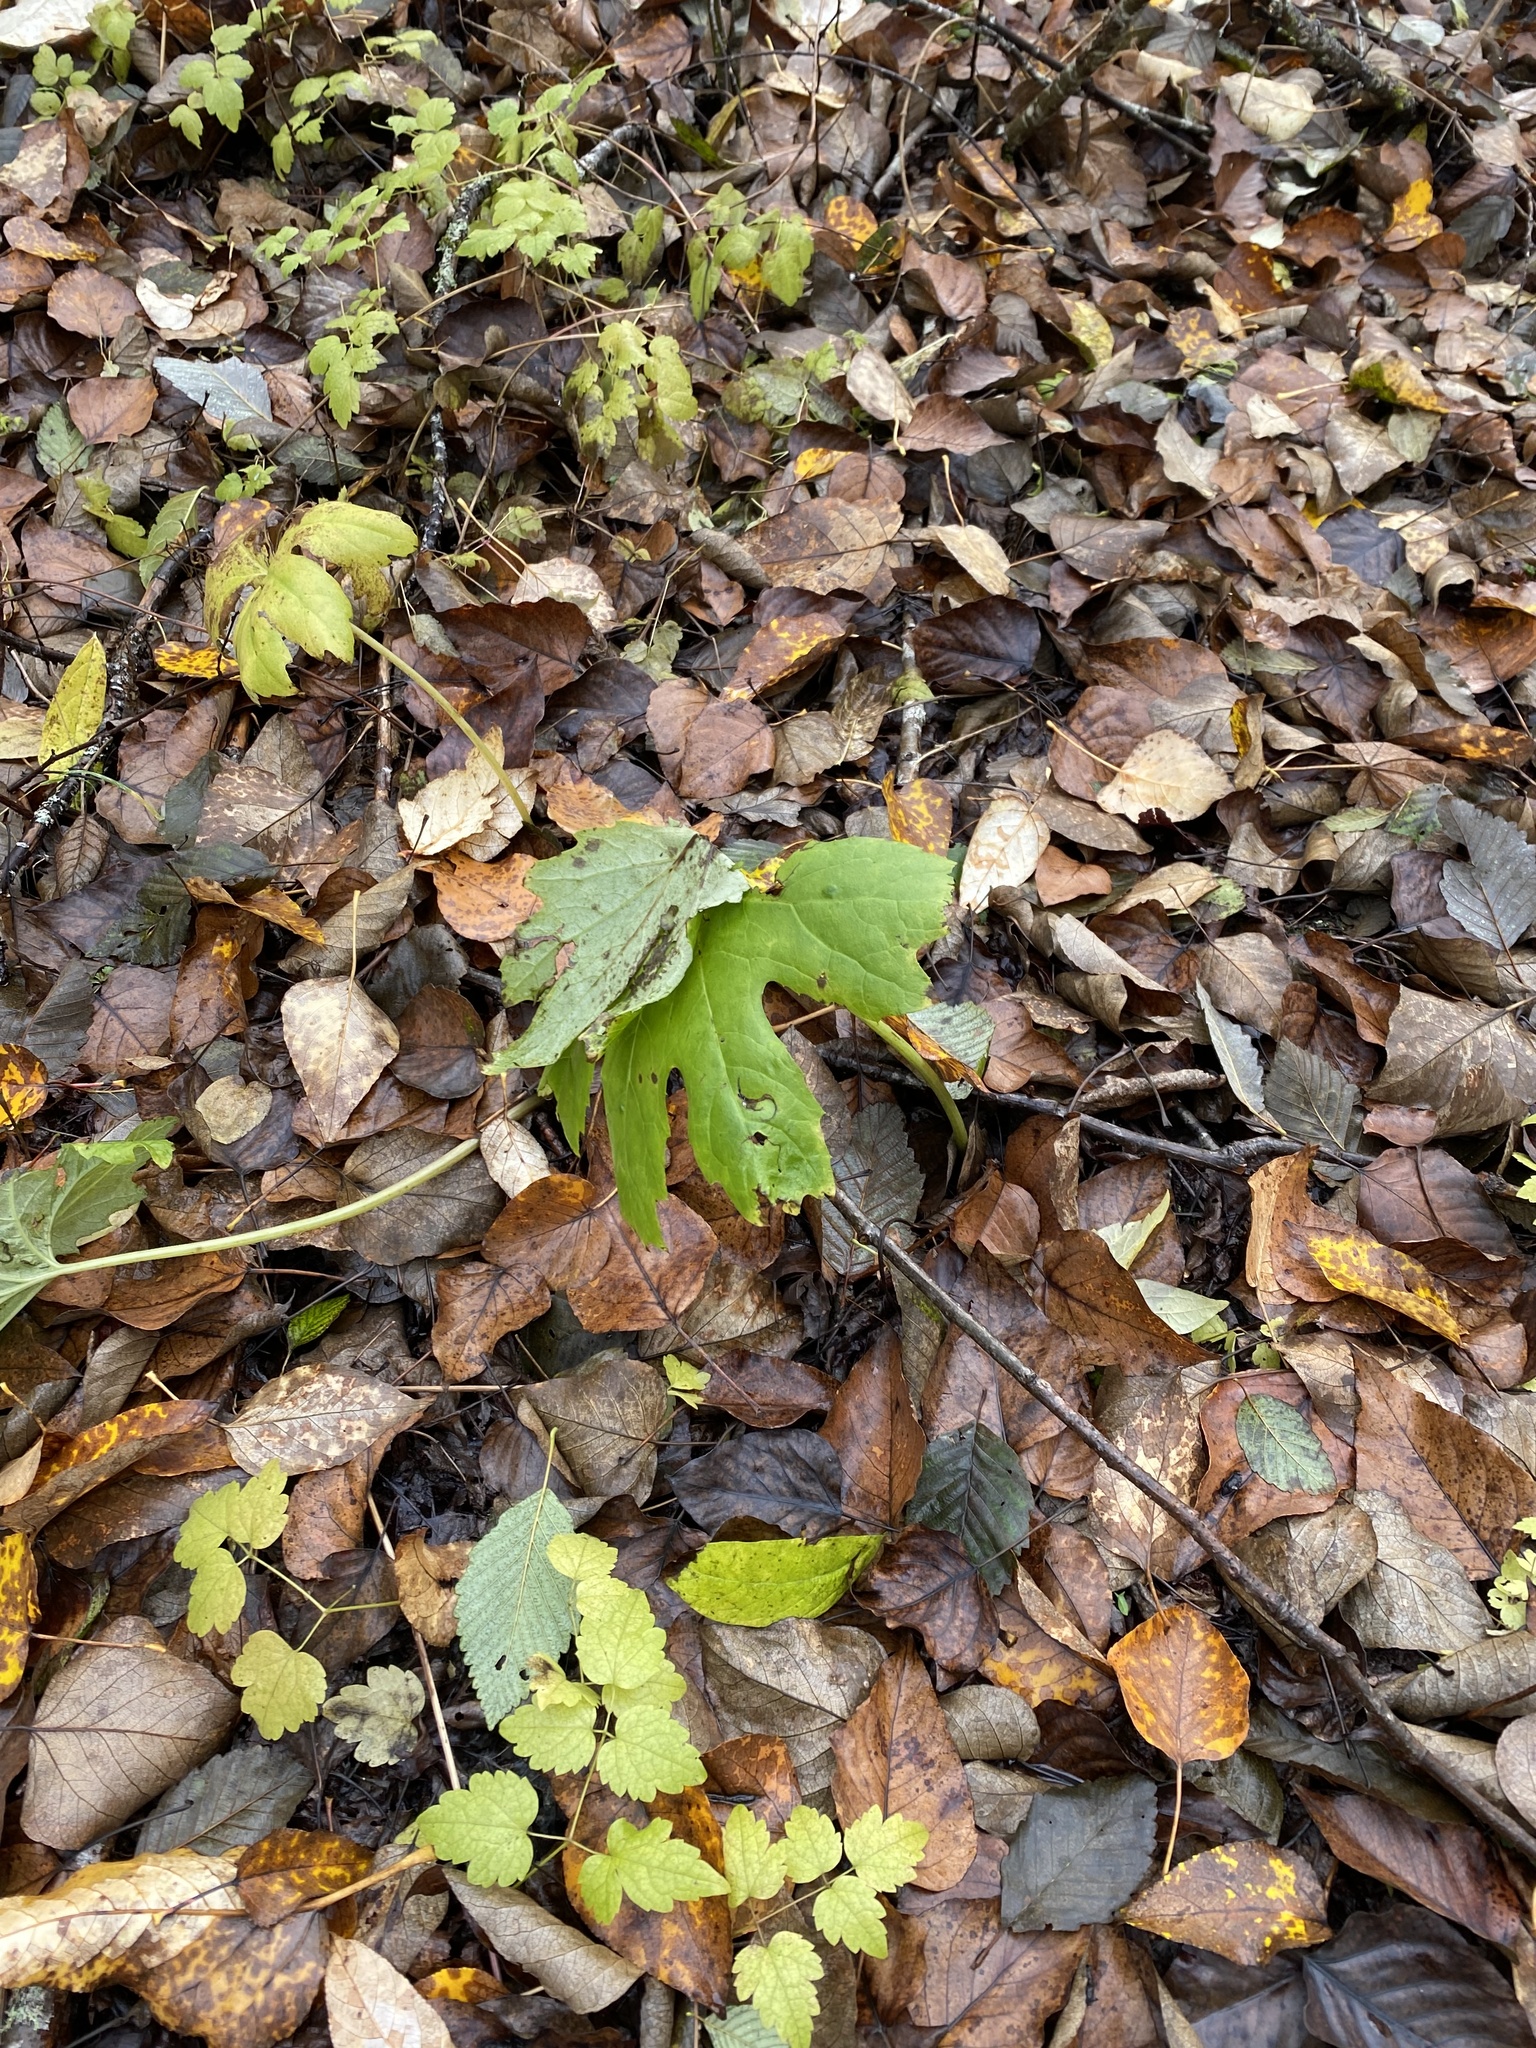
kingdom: Plantae
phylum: Tracheophyta
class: Magnoliopsida
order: Asterales
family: Asteraceae
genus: Petasites
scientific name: Petasites frigidus
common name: Arctic butterbur
